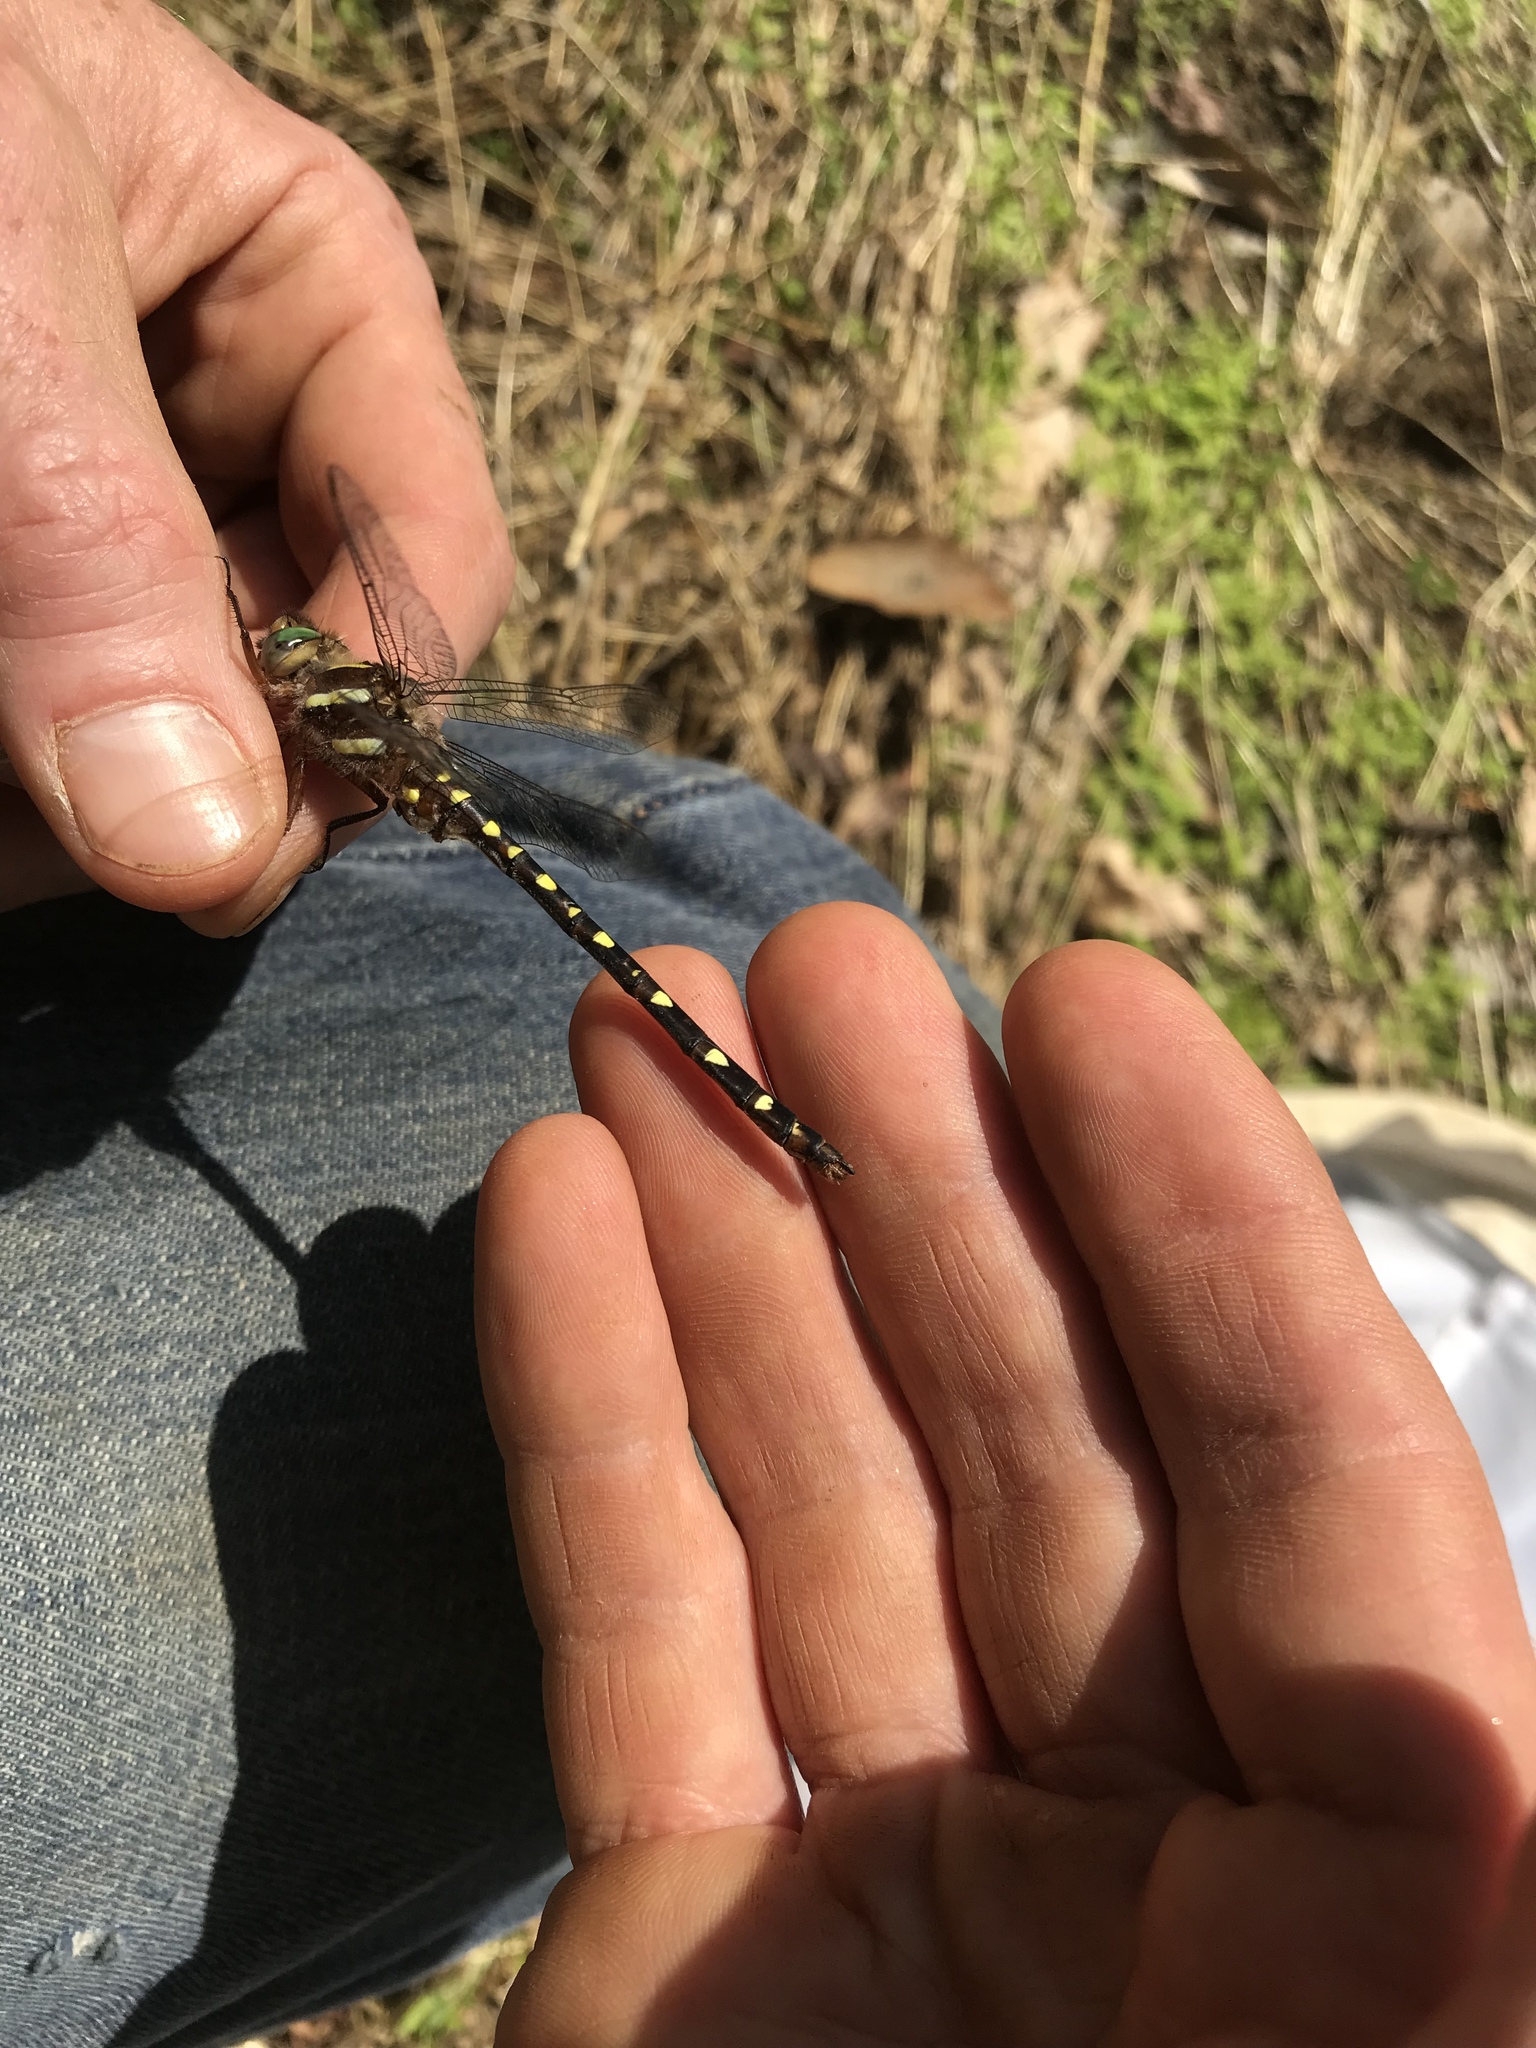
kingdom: Animalia
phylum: Arthropoda
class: Insecta
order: Odonata
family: Cordulegastridae
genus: Cordulegaster
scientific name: Cordulegaster maculata
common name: Twin-spotted spiketail
